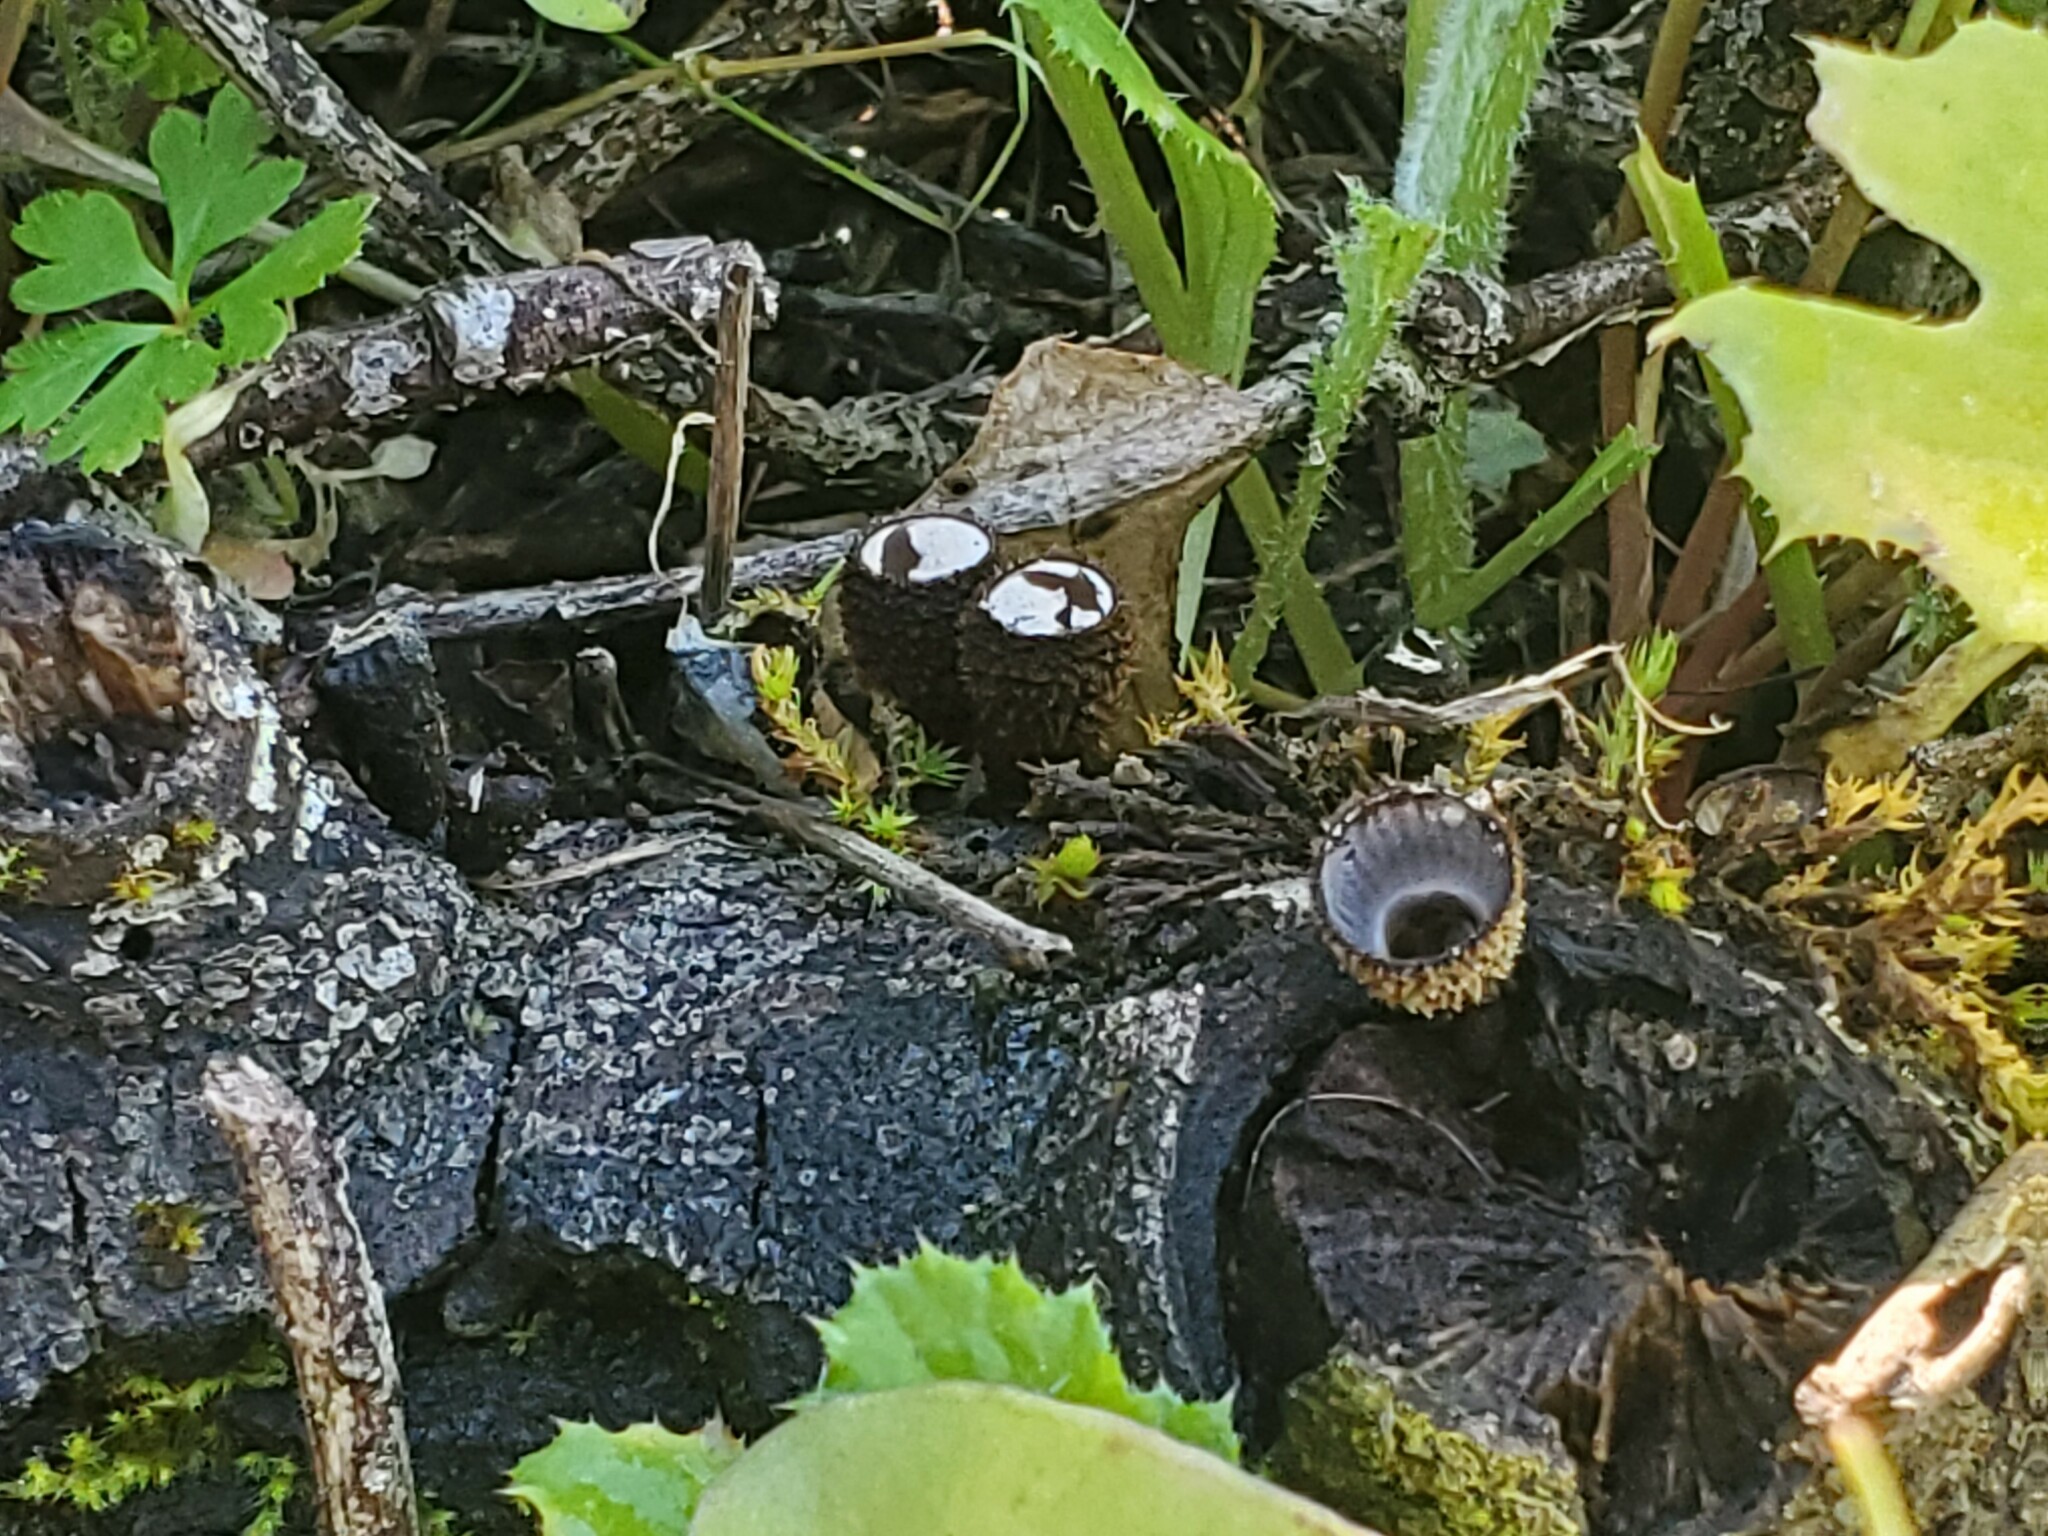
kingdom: Fungi
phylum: Basidiomycota
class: Agaricomycetes
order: Agaricales
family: Agaricaceae
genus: Cyathus
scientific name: Cyathus striatus
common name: Fluted bird's nest
